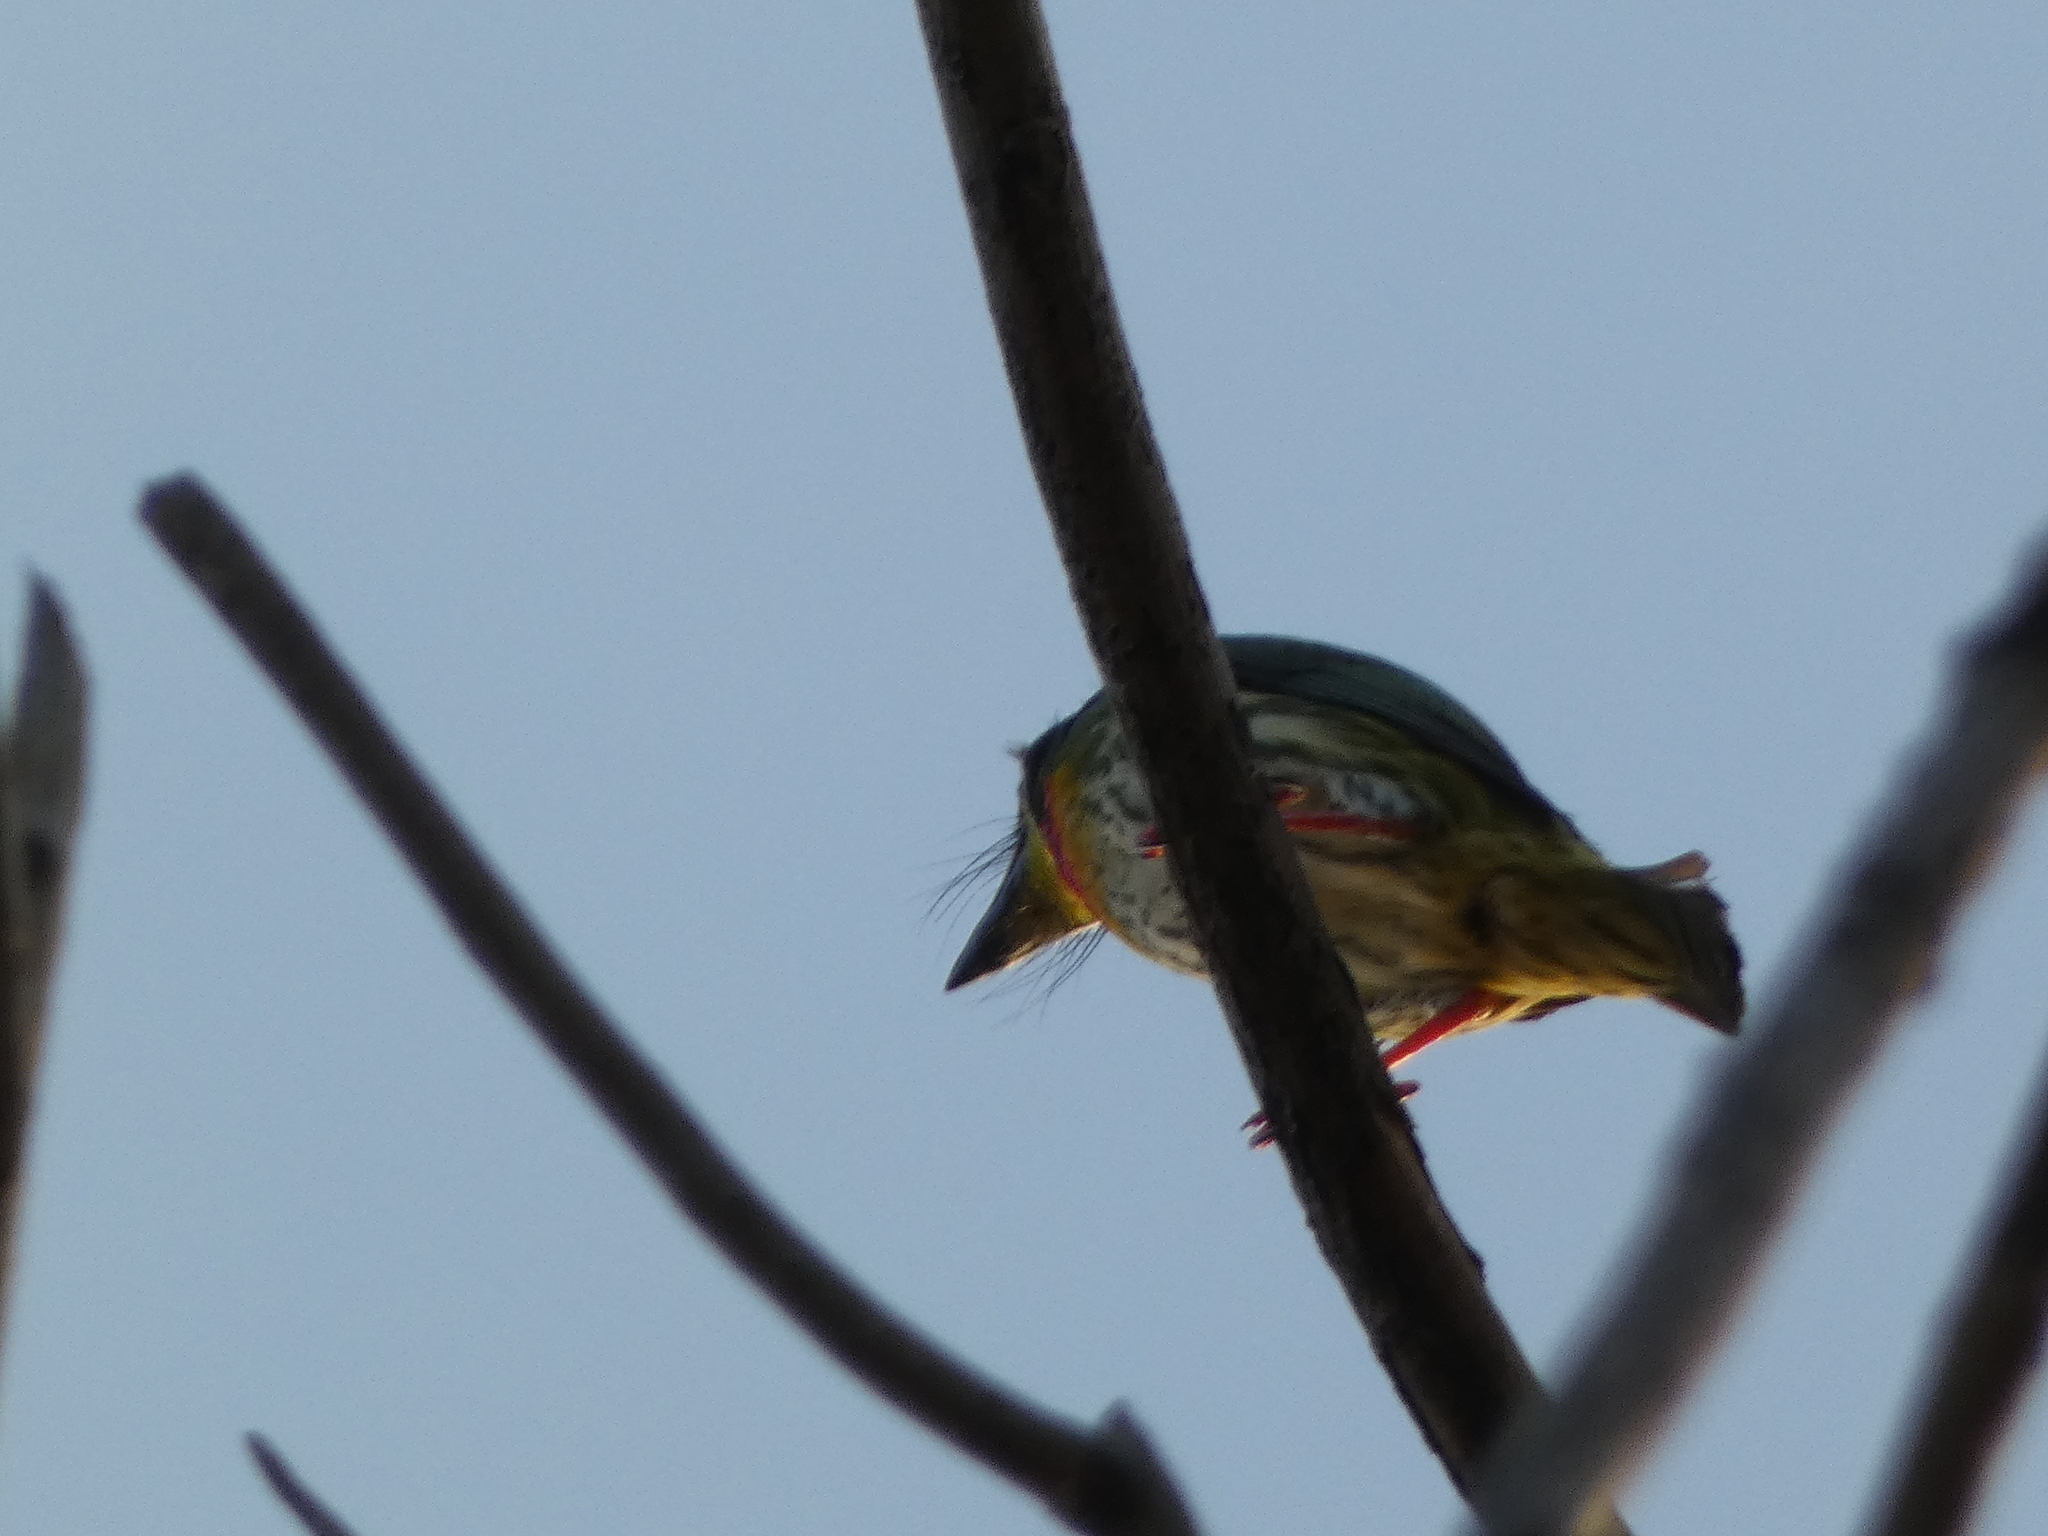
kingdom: Animalia
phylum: Chordata
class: Aves
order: Piciformes
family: Megalaimidae
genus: Psilopogon
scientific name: Psilopogon haemacephalus
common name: Coppersmith barbet
